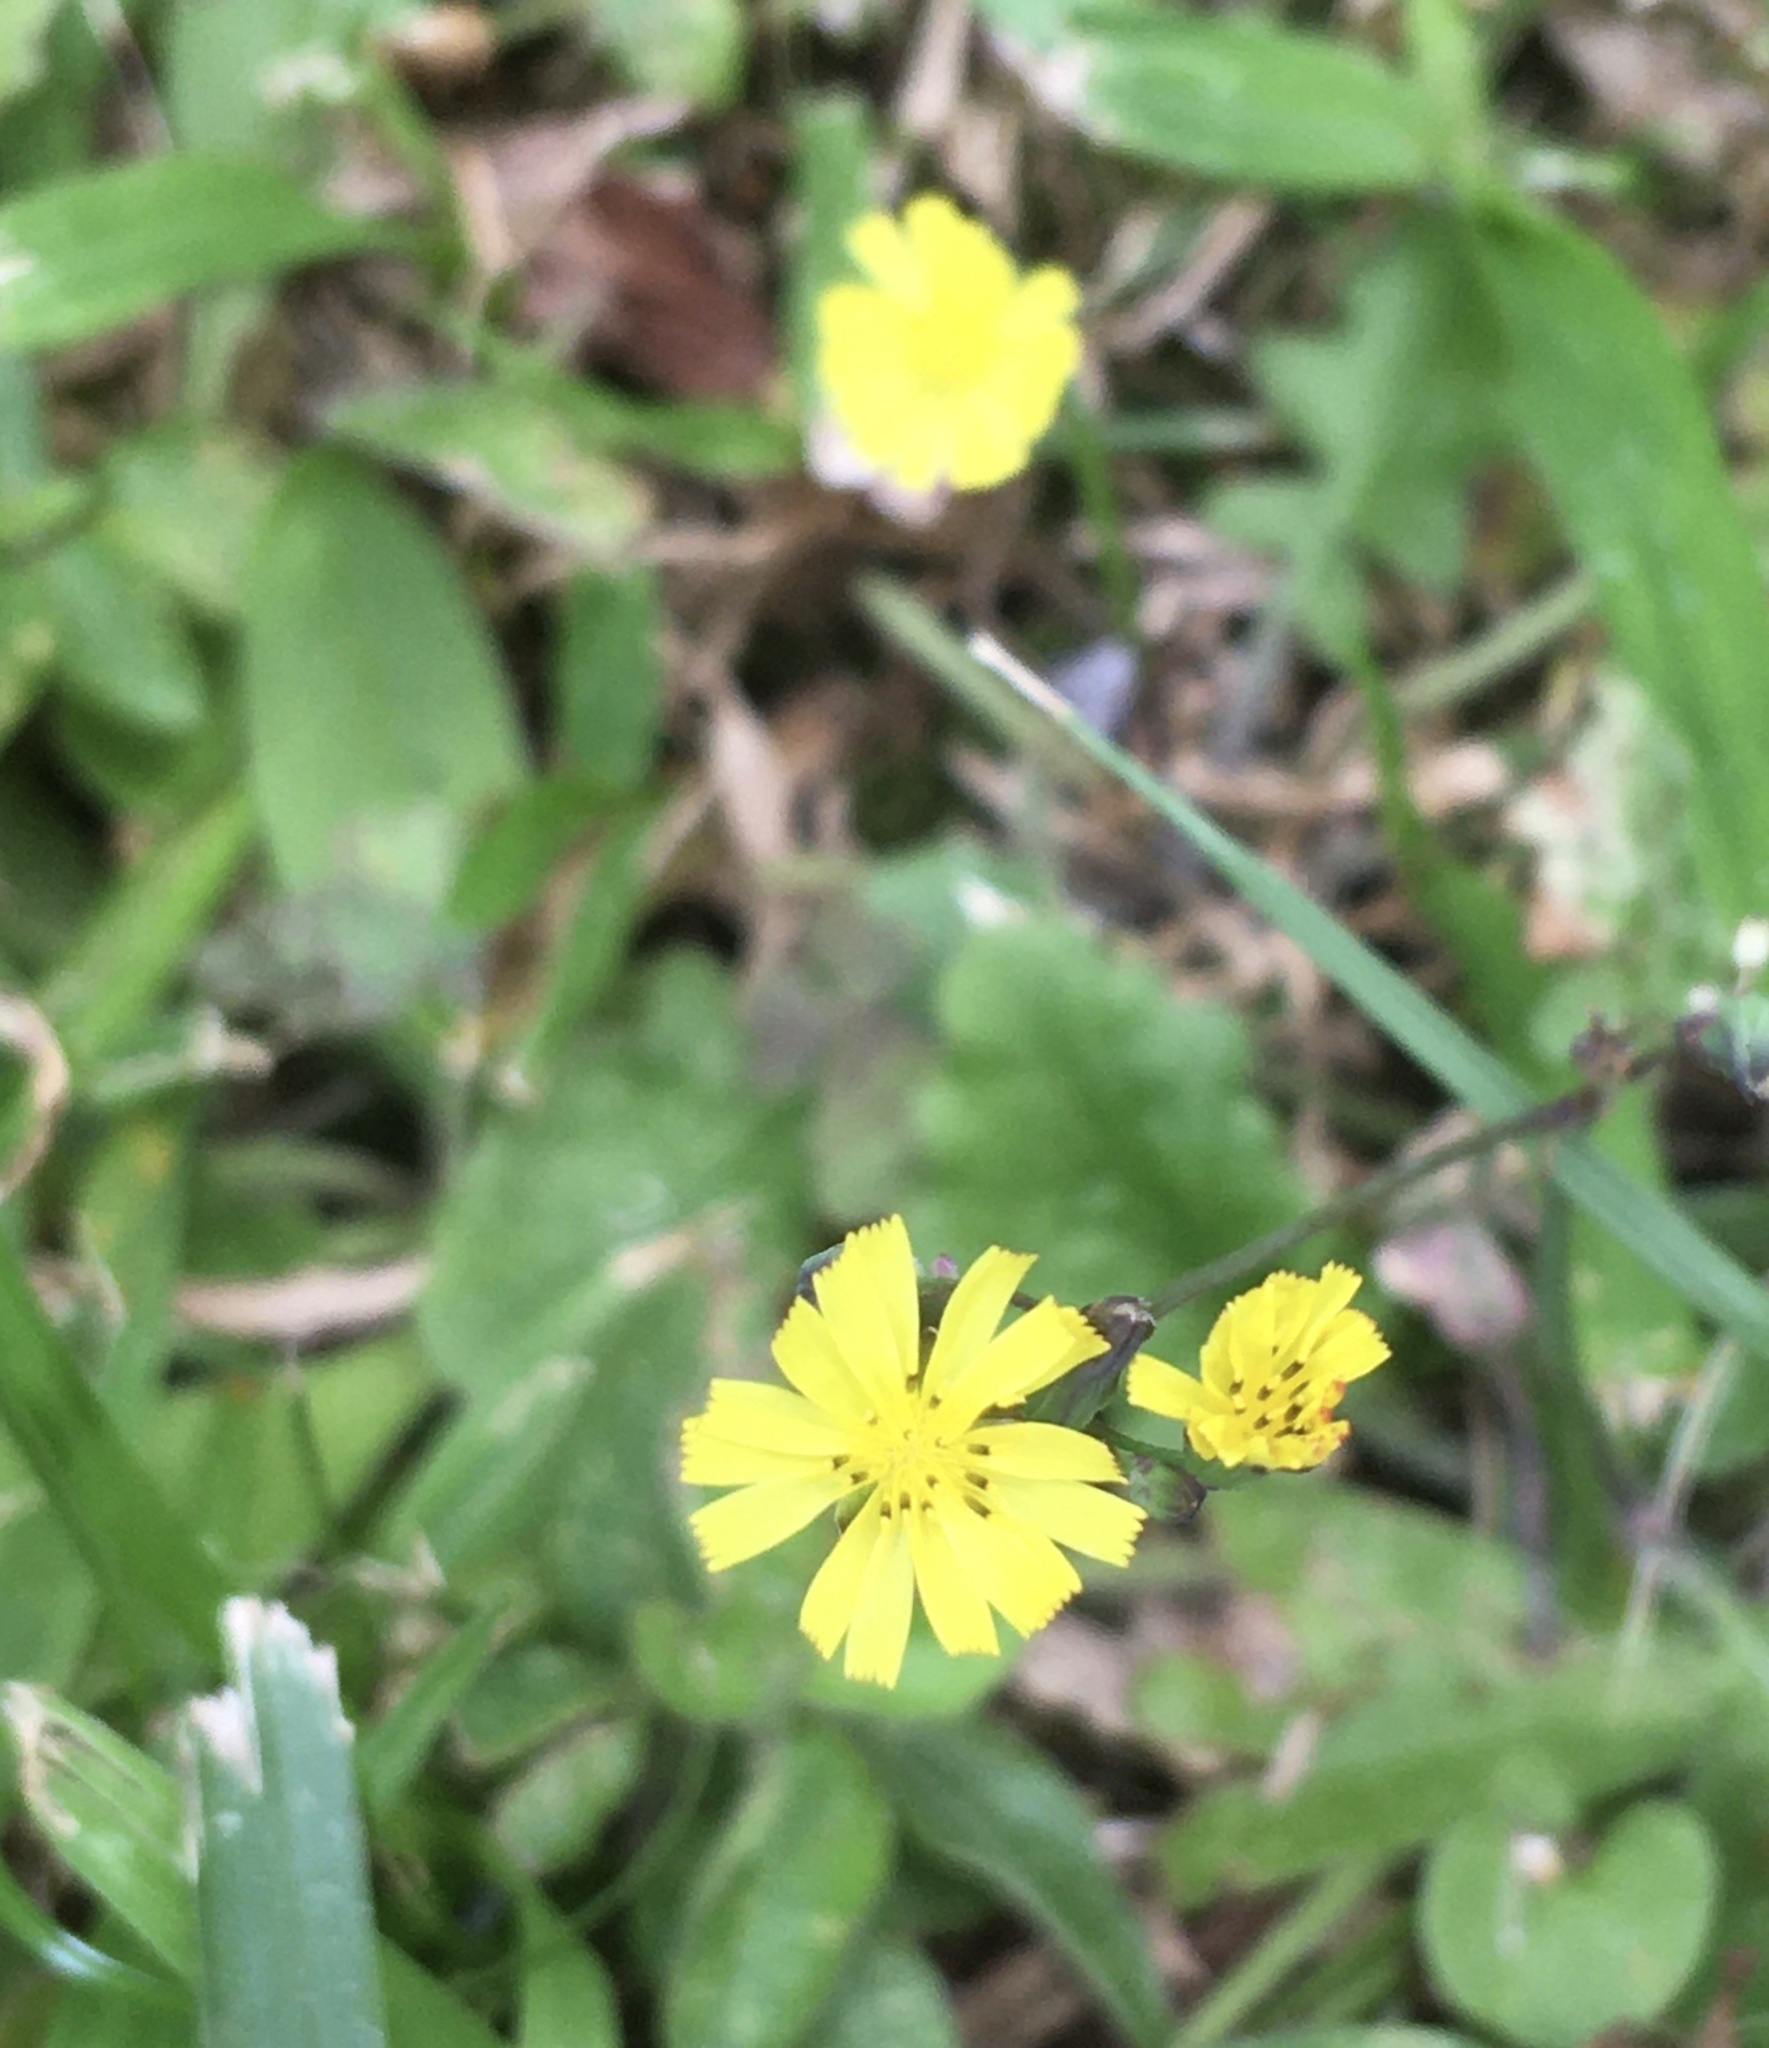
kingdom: Plantae
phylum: Tracheophyta
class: Magnoliopsida
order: Asterales
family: Asteraceae
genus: Youngia
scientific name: Youngia japonica
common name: Oriental false hawksbeard
